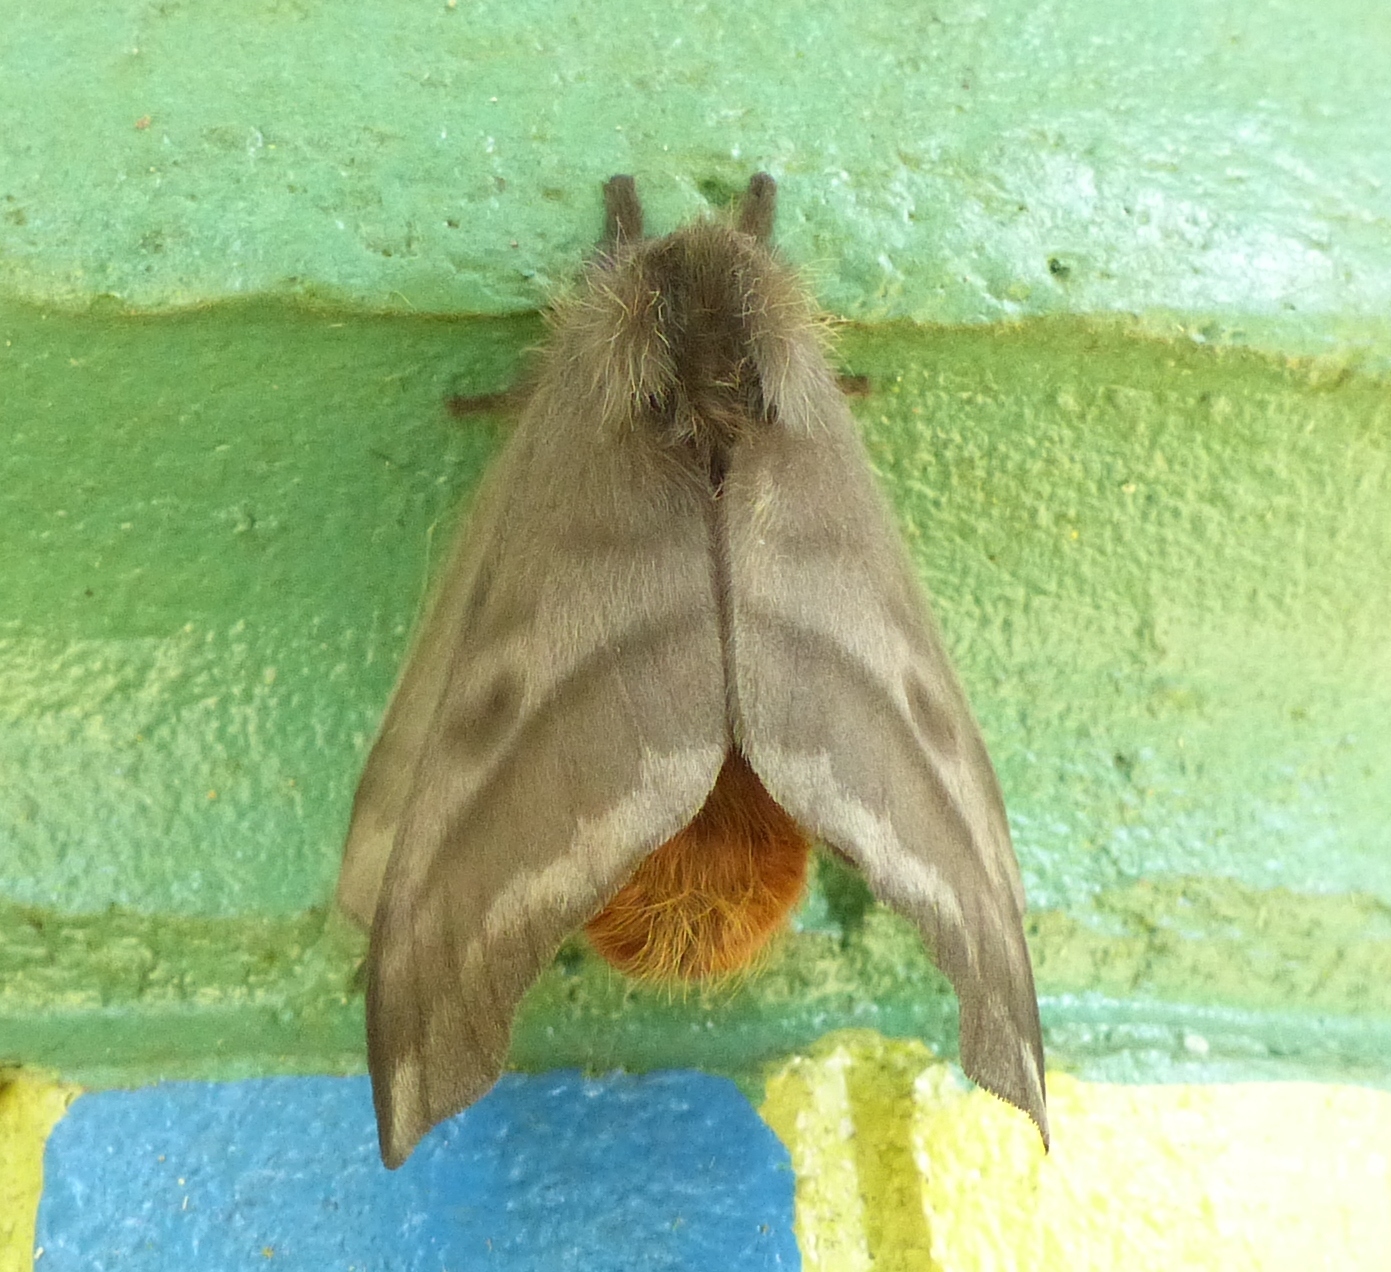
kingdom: Animalia
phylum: Arthropoda
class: Insecta
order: Lepidoptera
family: Saturniidae
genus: Hylesia
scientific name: Hylesia nigricans
